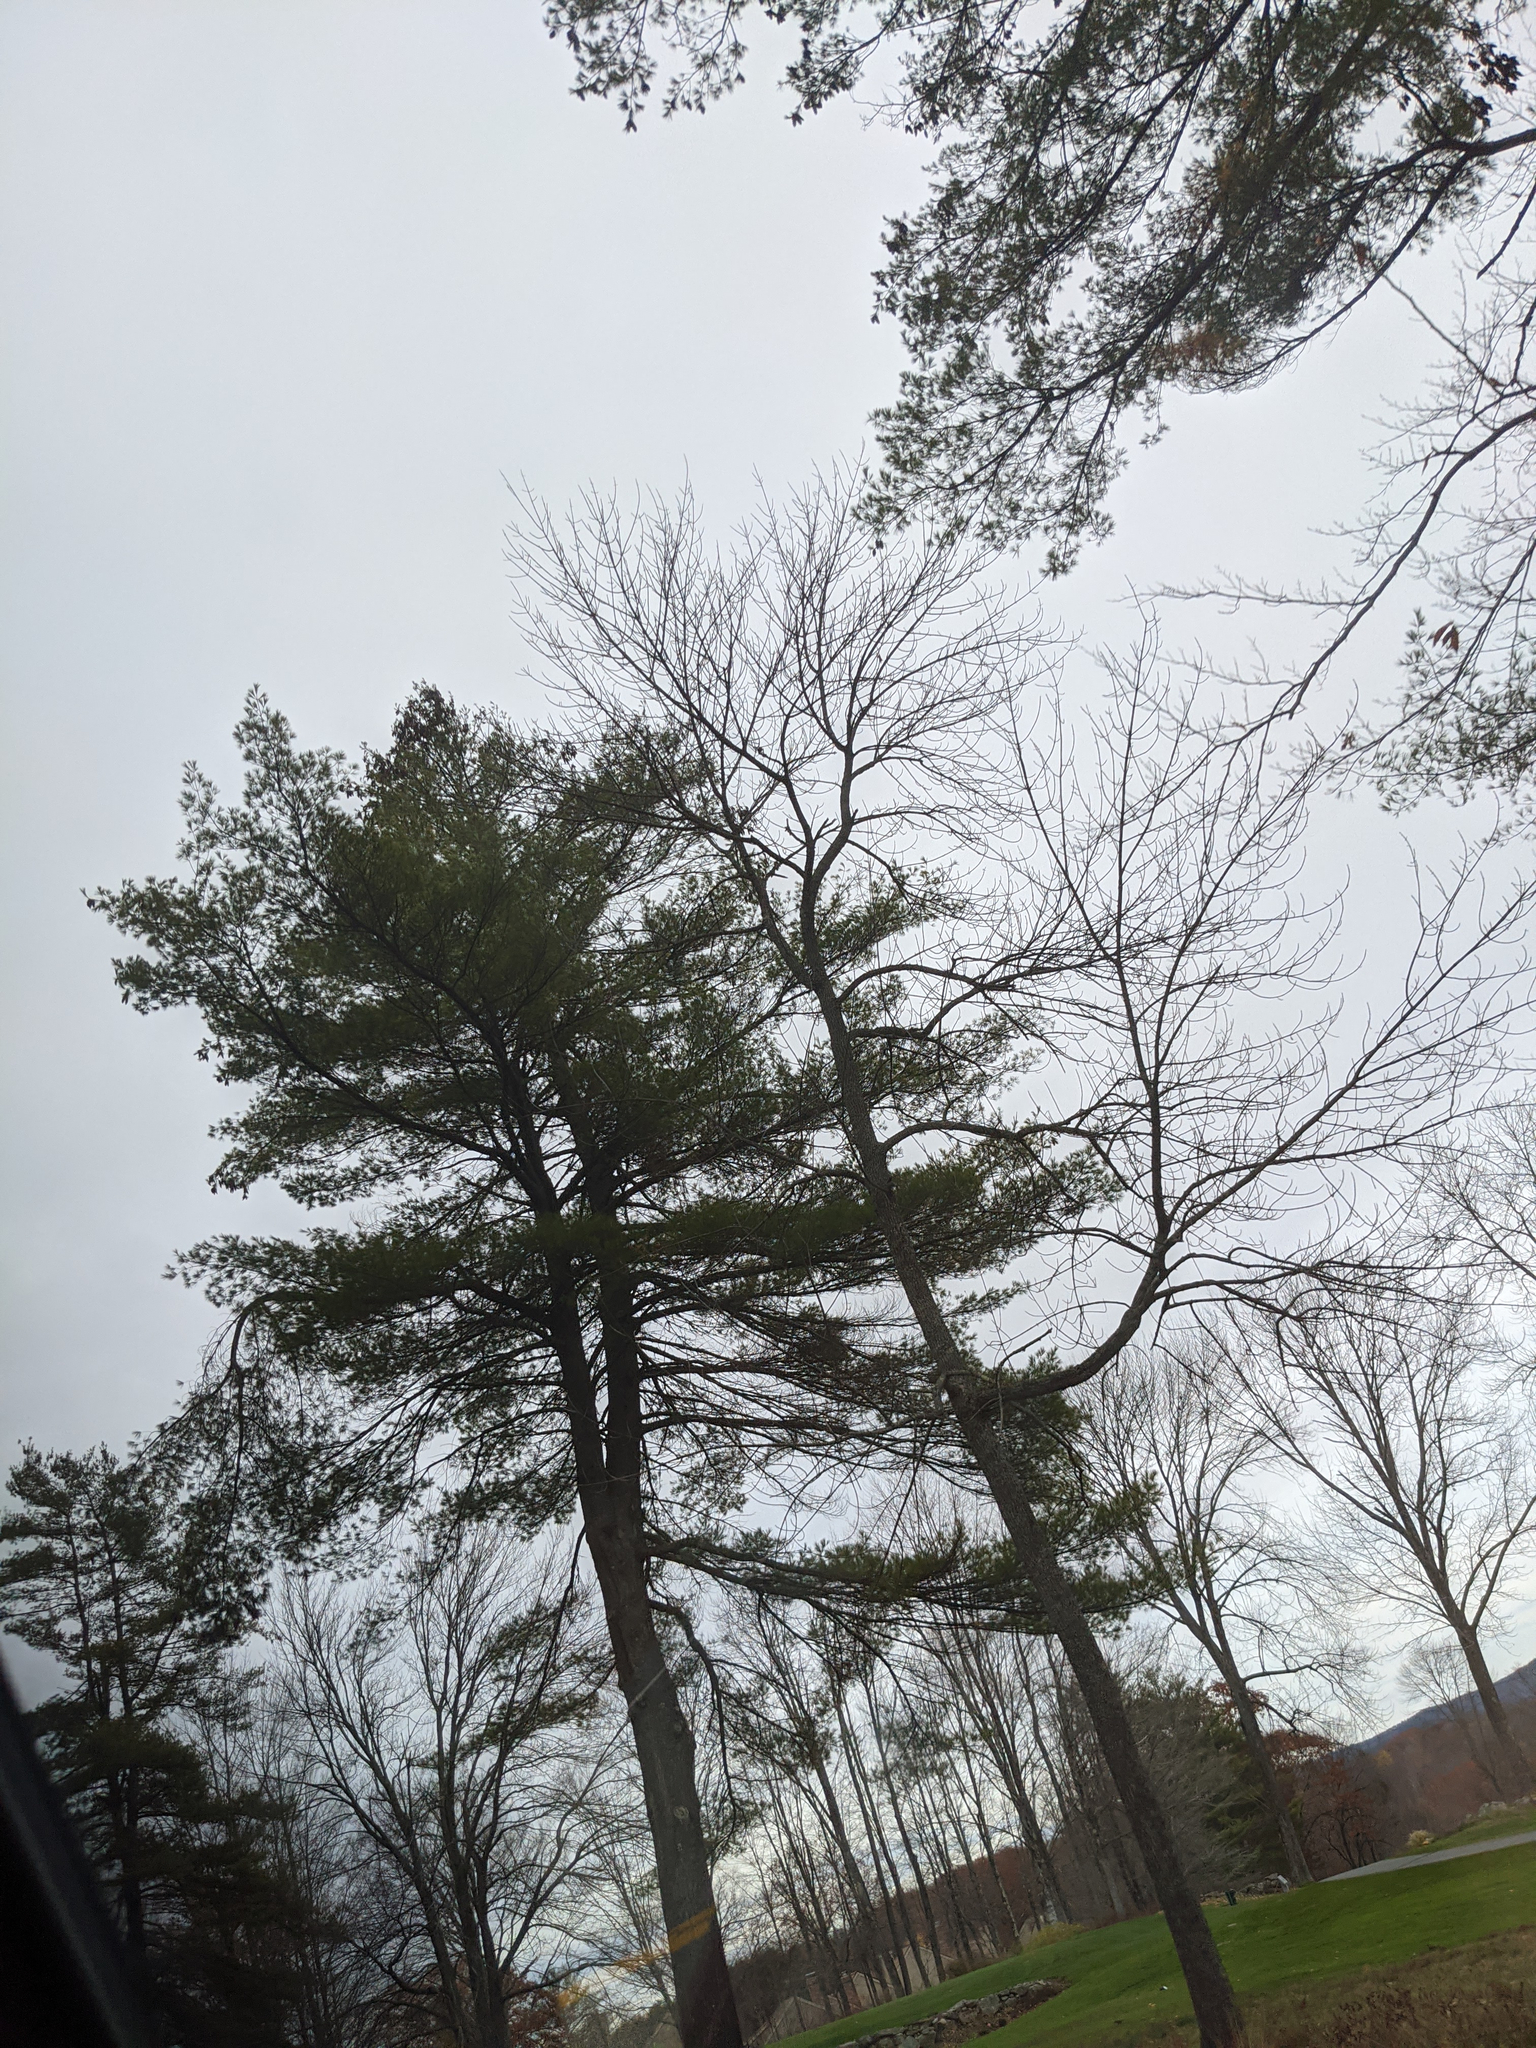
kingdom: Plantae
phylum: Tracheophyta
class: Pinopsida
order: Pinales
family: Pinaceae
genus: Pinus
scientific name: Pinus strobus
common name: Weymouth pine
